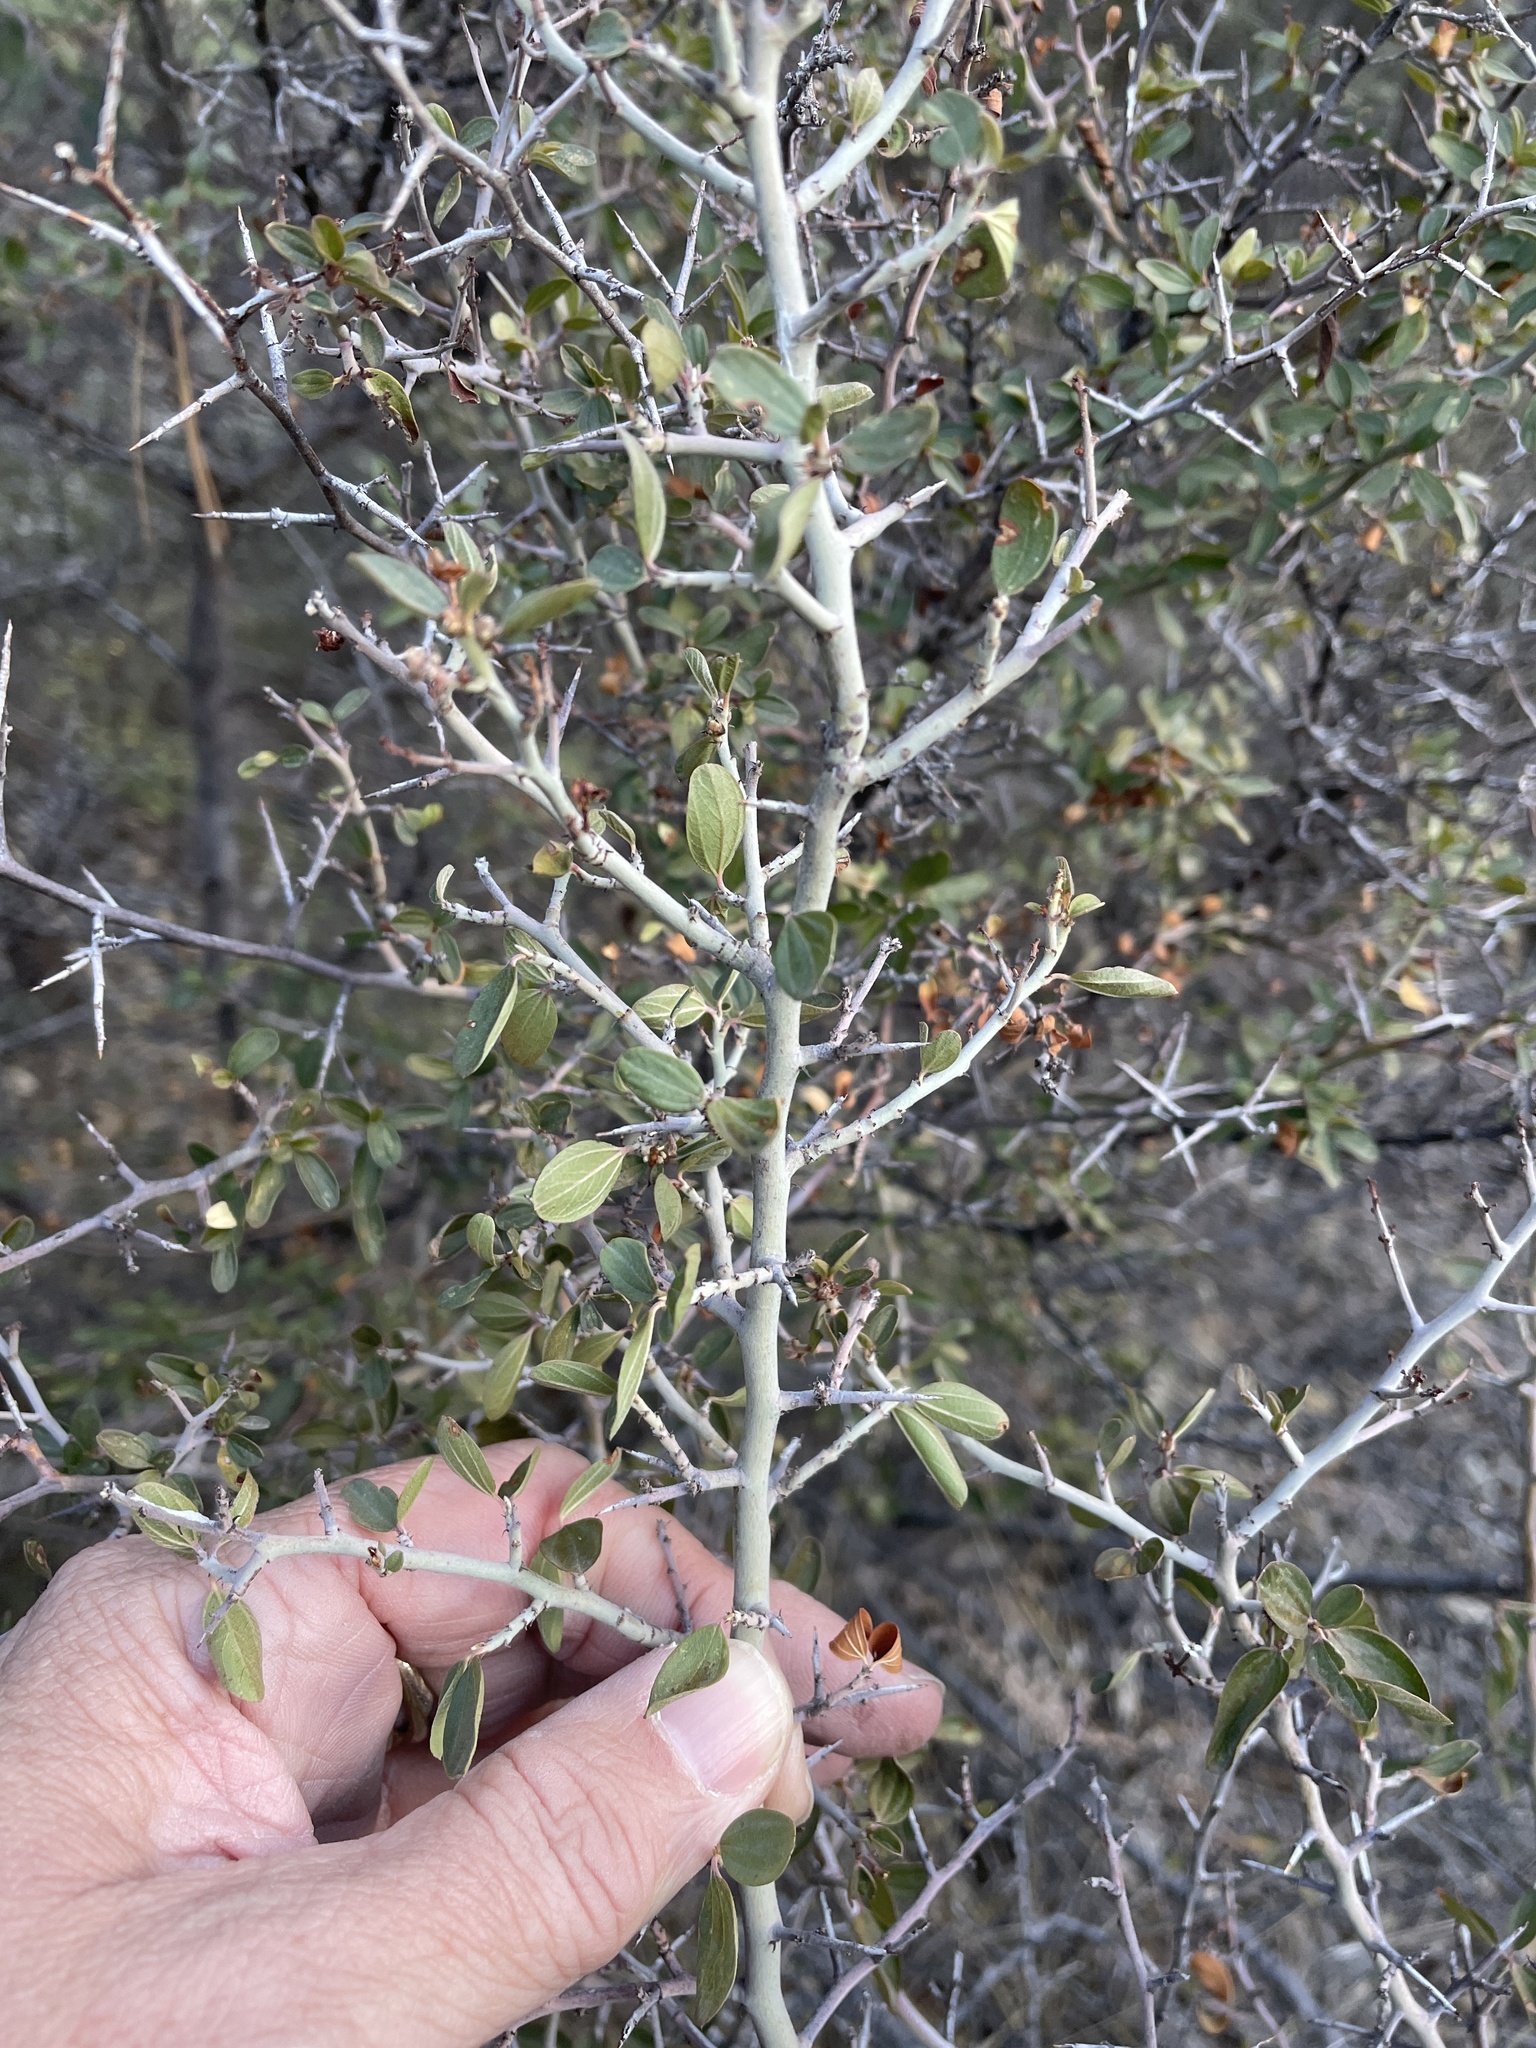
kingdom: Plantae
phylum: Tracheophyta
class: Magnoliopsida
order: Rosales
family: Rhamnaceae
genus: Ceanothus
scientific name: Ceanothus fendleri
